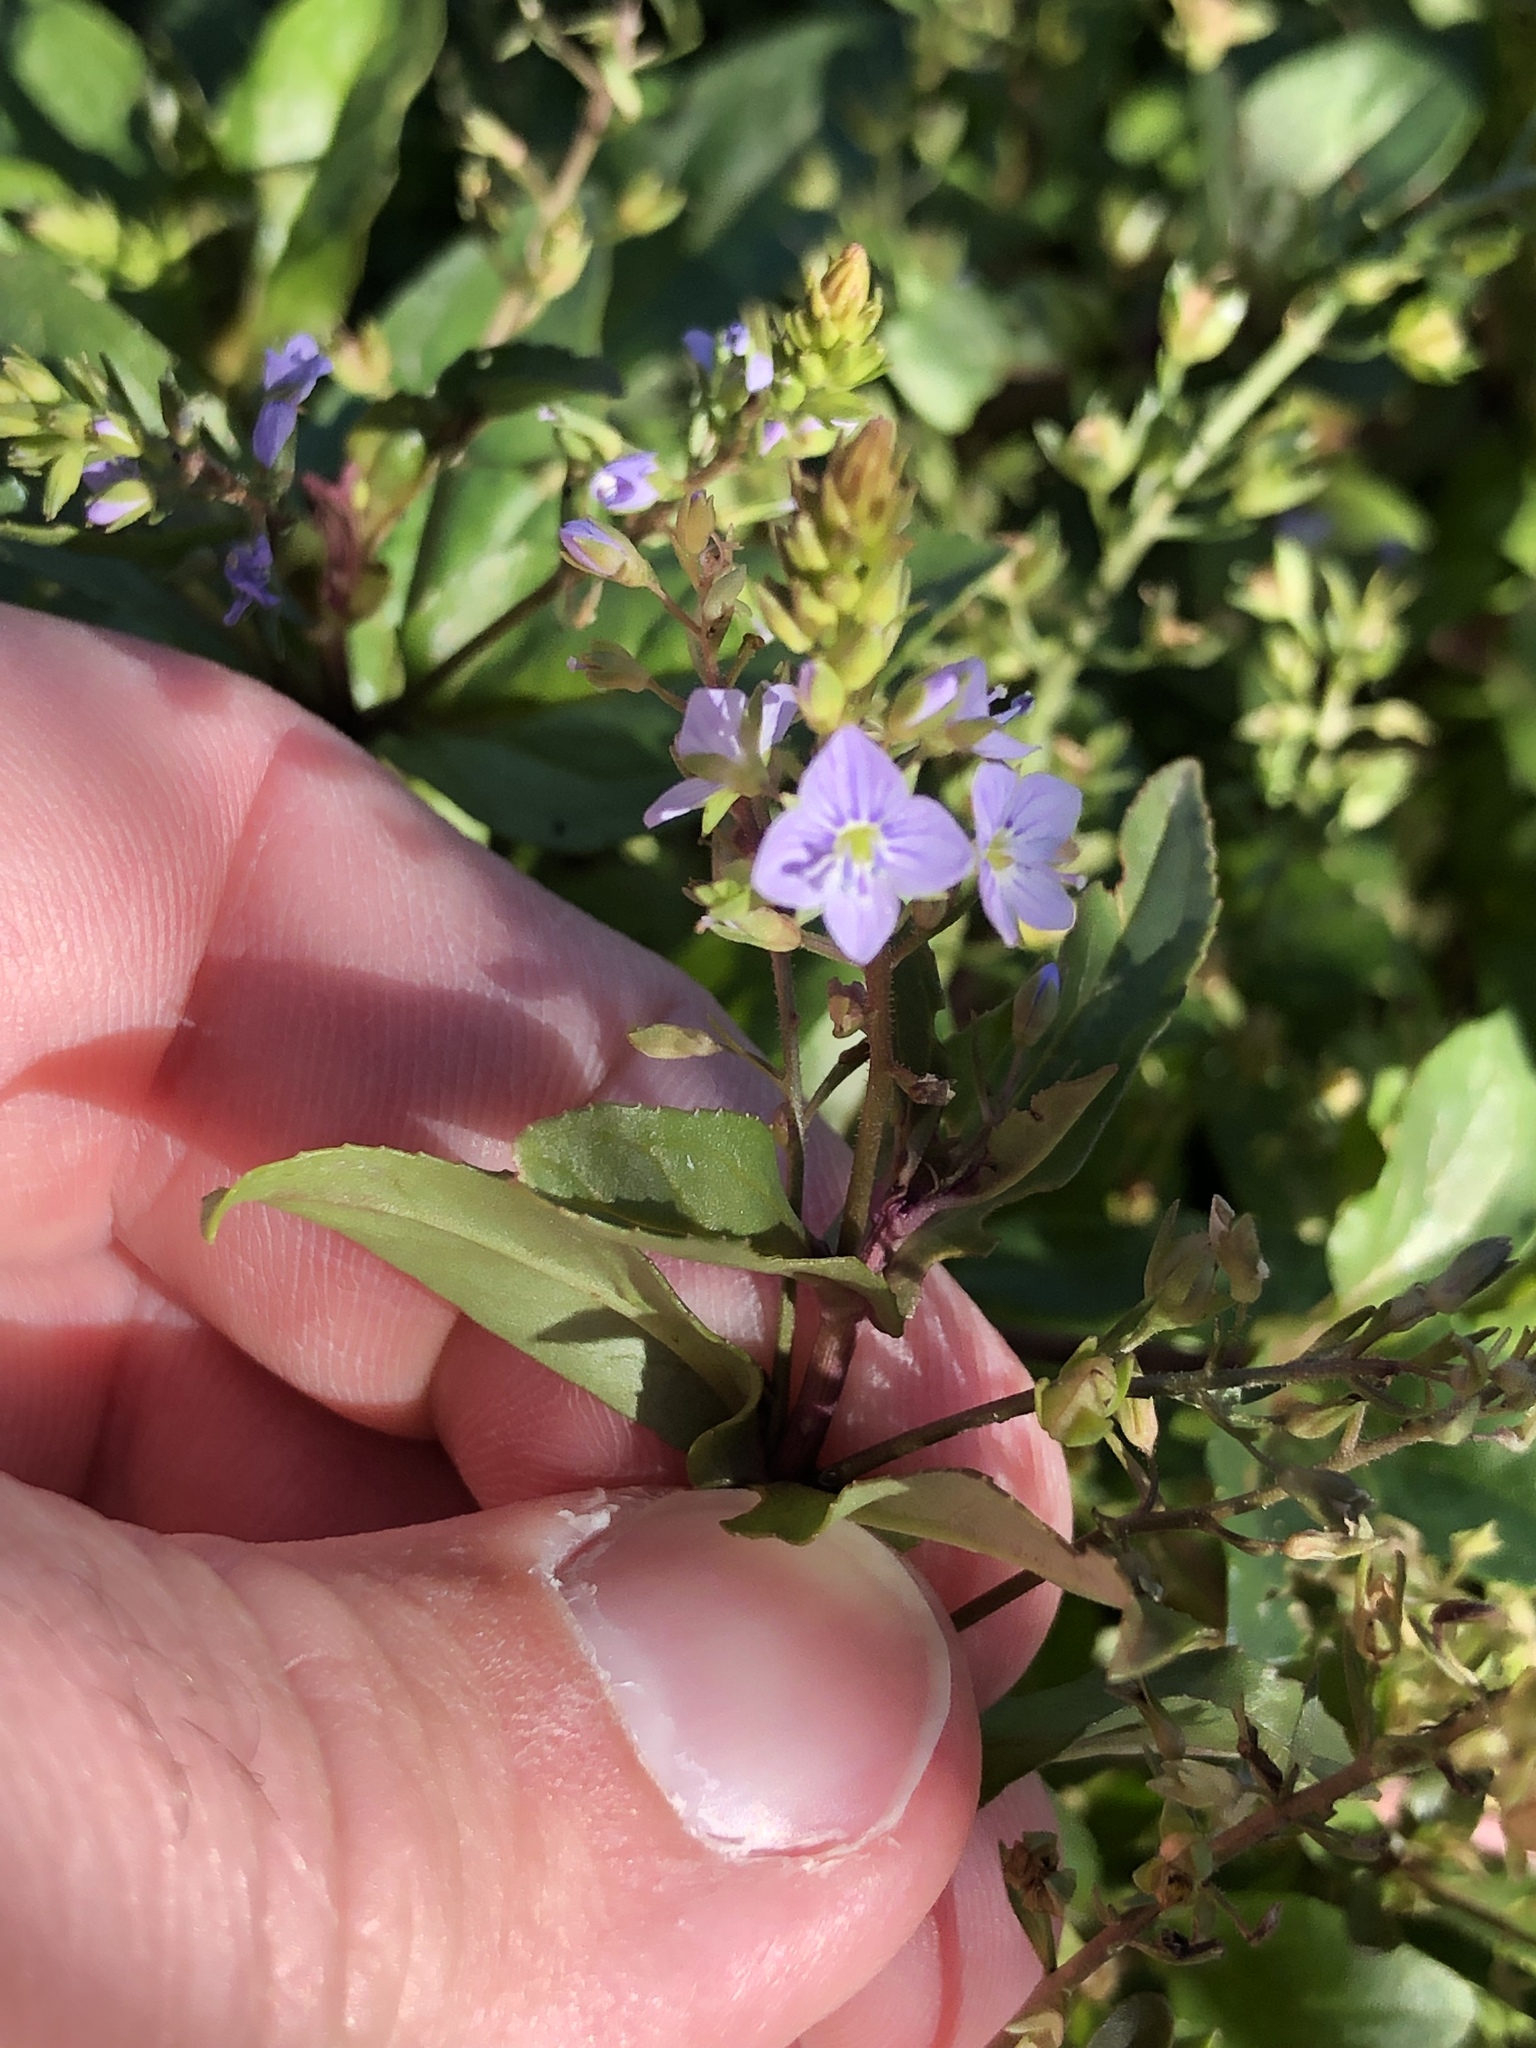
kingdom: Plantae
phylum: Tracheophyta
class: Magnoliopsida
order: Lamiales
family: Plantaginaceae
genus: Veronica
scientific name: Veronica anagallis-aquatica
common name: Water speedwell
